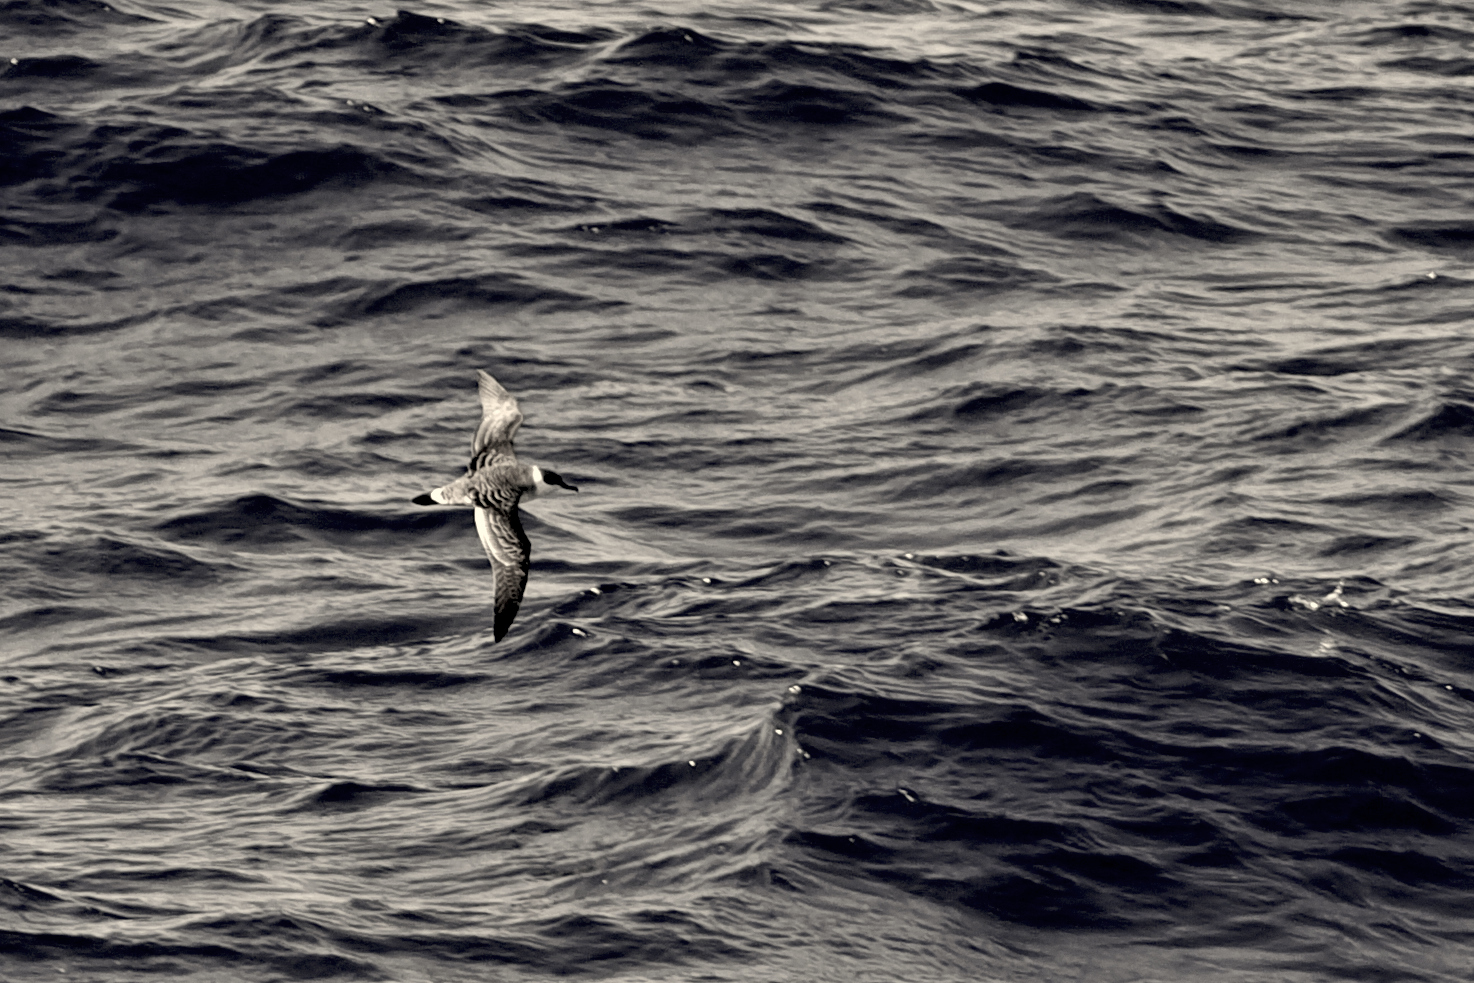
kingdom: Animalia
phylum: Chordata
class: Aves
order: Procellariiformes
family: Procellariidae
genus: Puffinus
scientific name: Puffinus gravis
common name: Great shearwater
